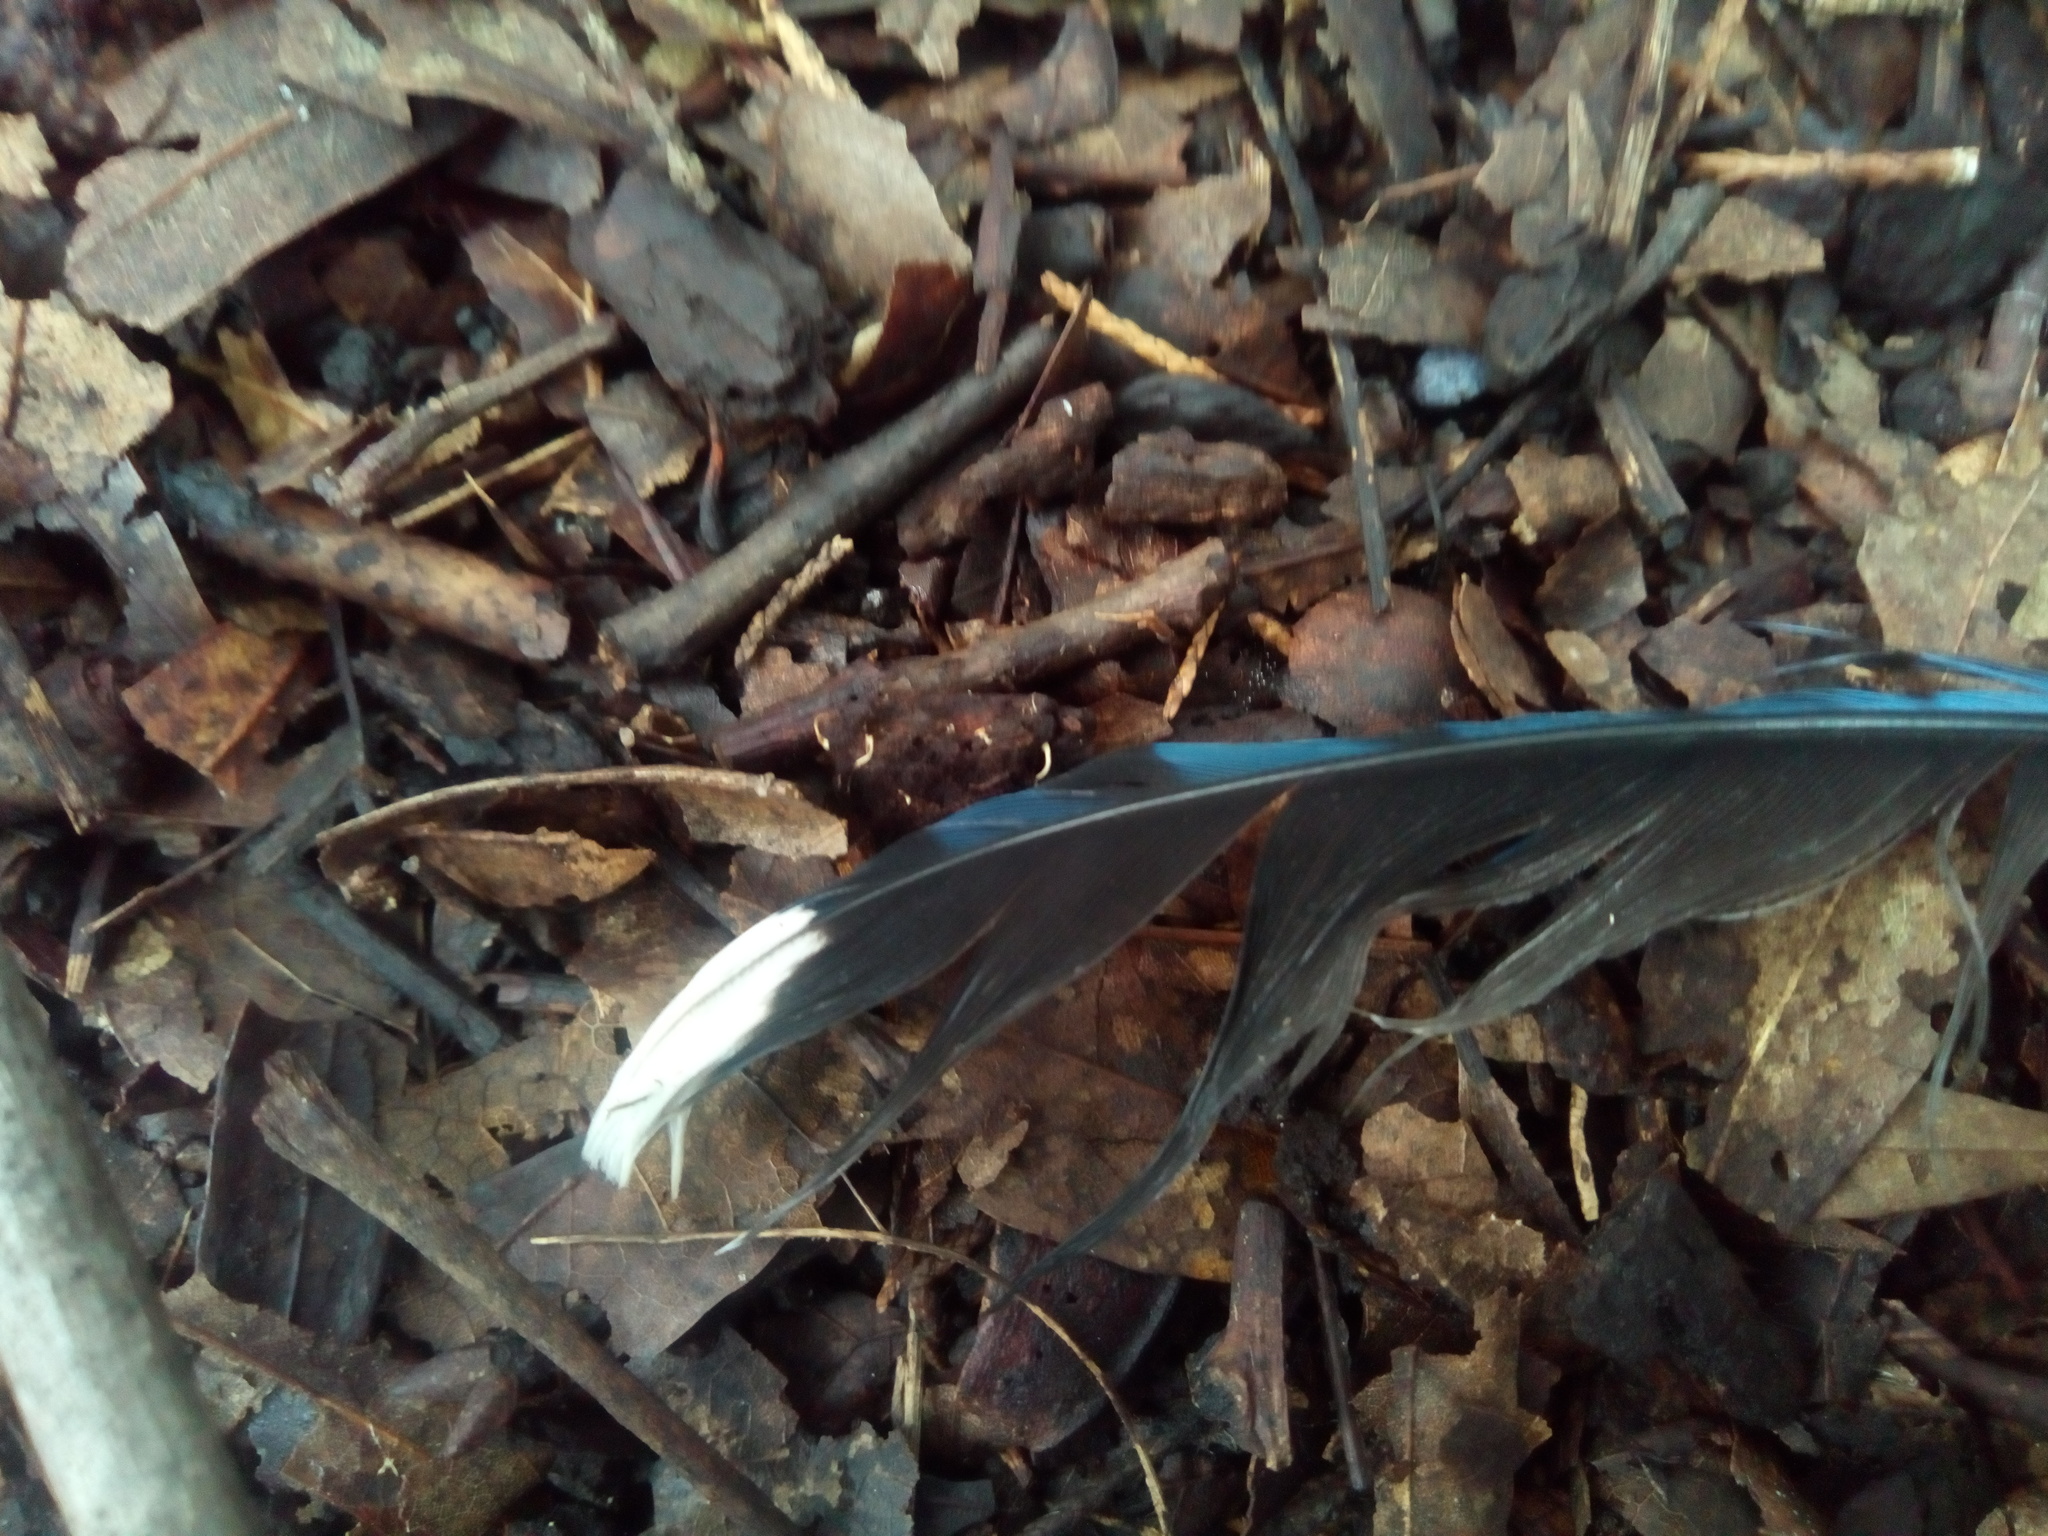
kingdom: Animalia
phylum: Chordata
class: Aves
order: Passeriformes
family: Corvidae
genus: Cyanocitta
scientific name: Cyanocitta cristata
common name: Blue jay
